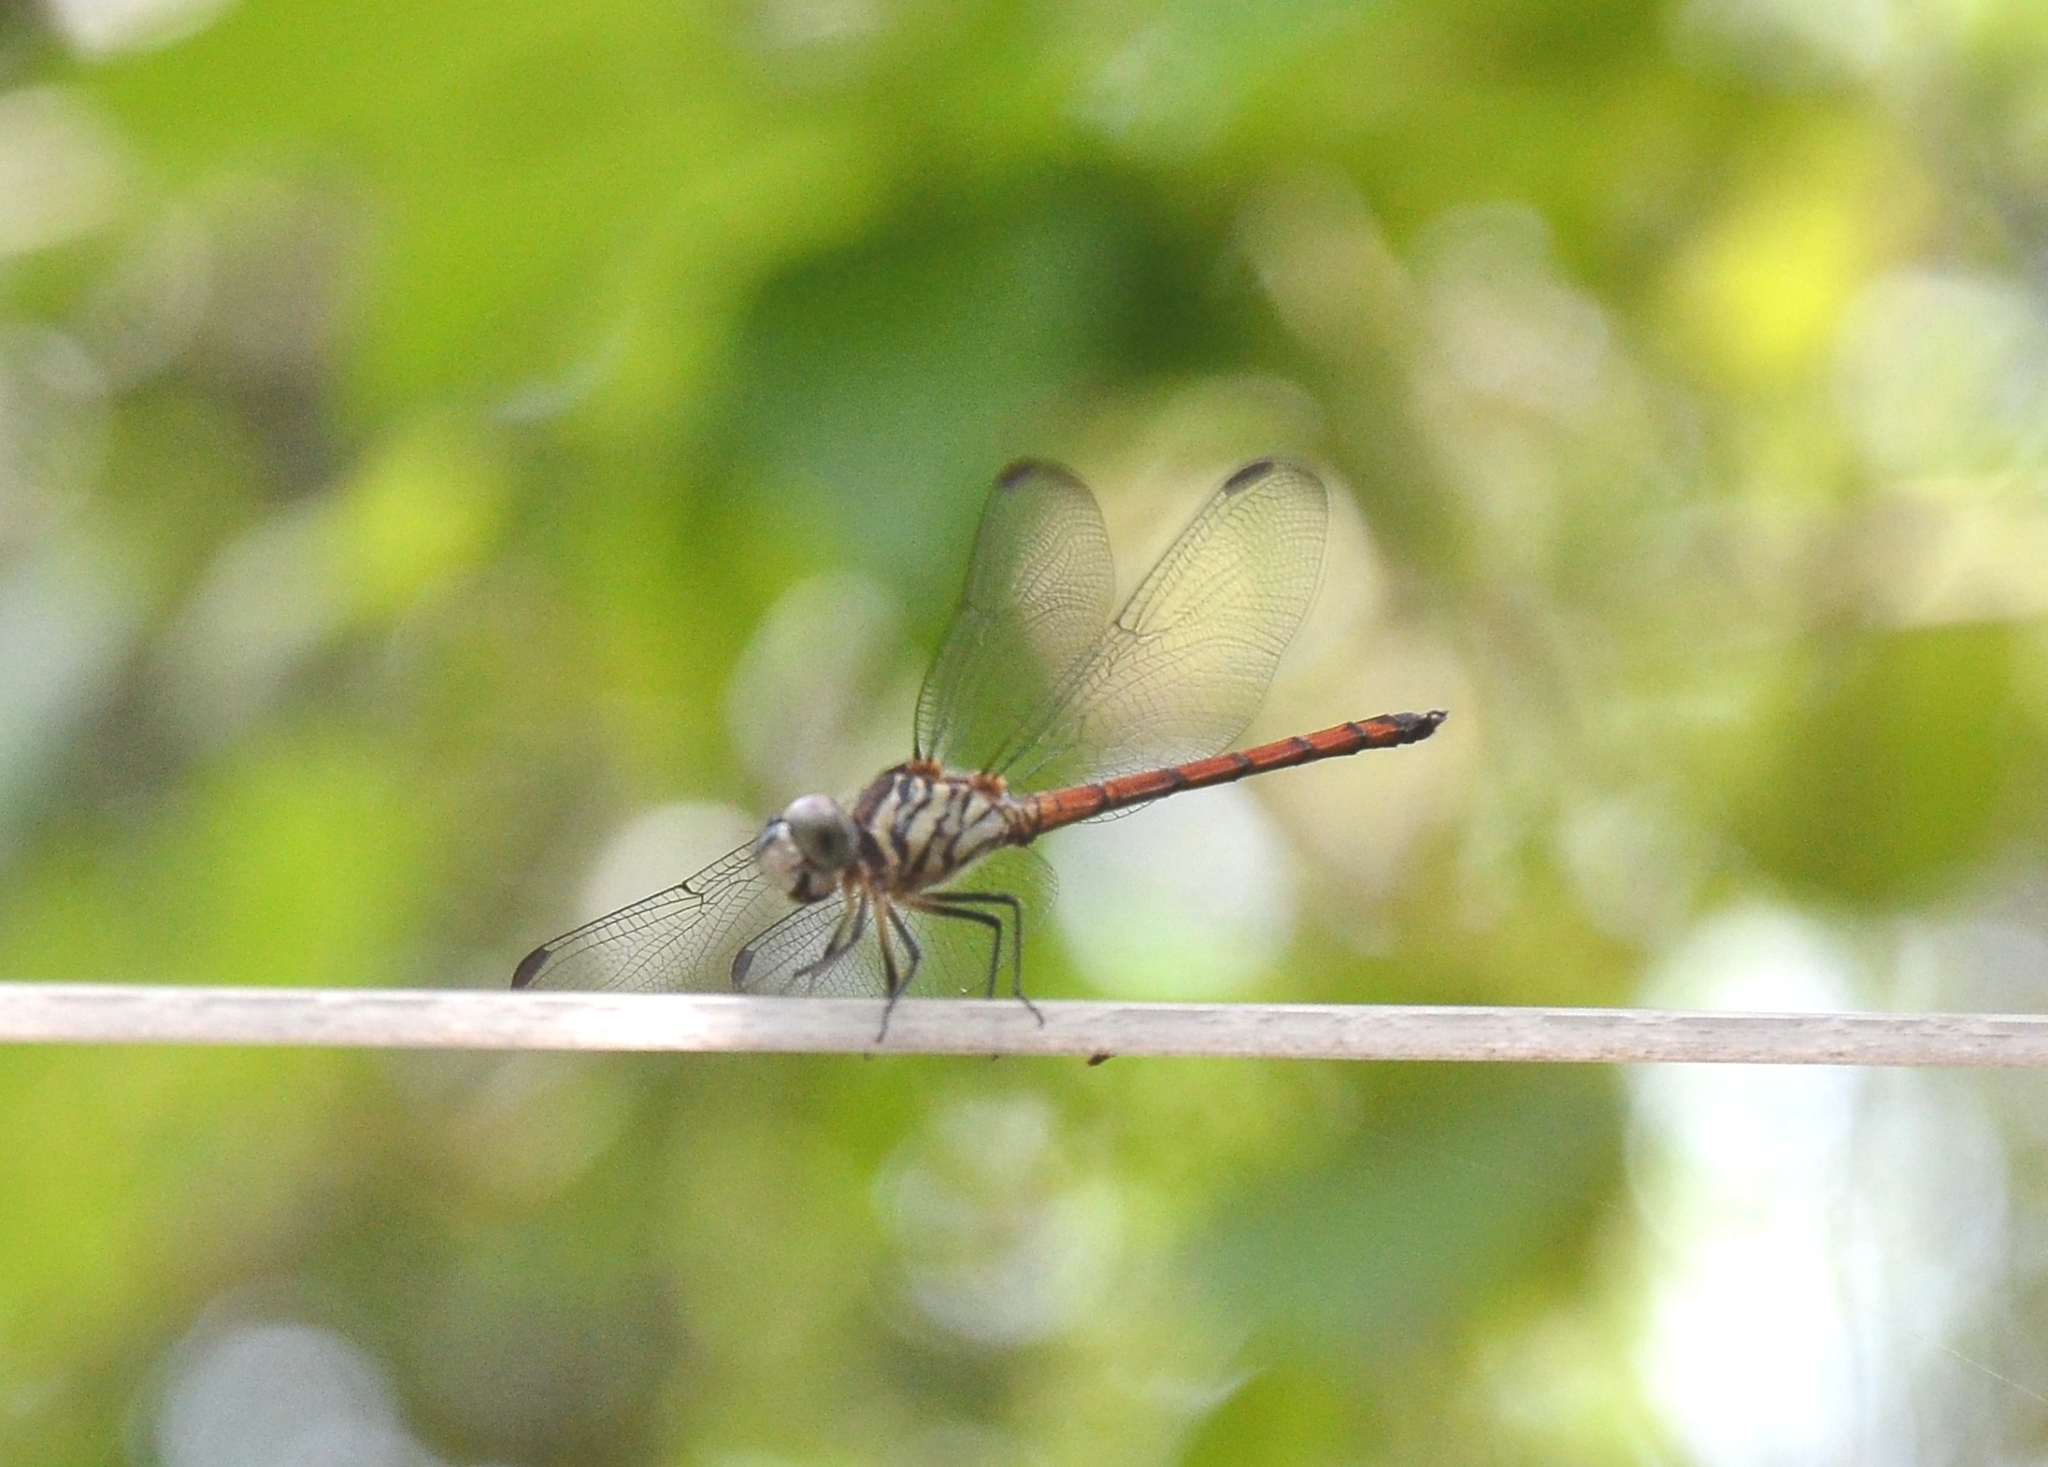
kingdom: Animalia
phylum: Arthropoda
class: Insecta
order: Odonata
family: Libellulidae
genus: Lathrecista
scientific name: Lathrecista asiatica
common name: Scarlet grenadier
